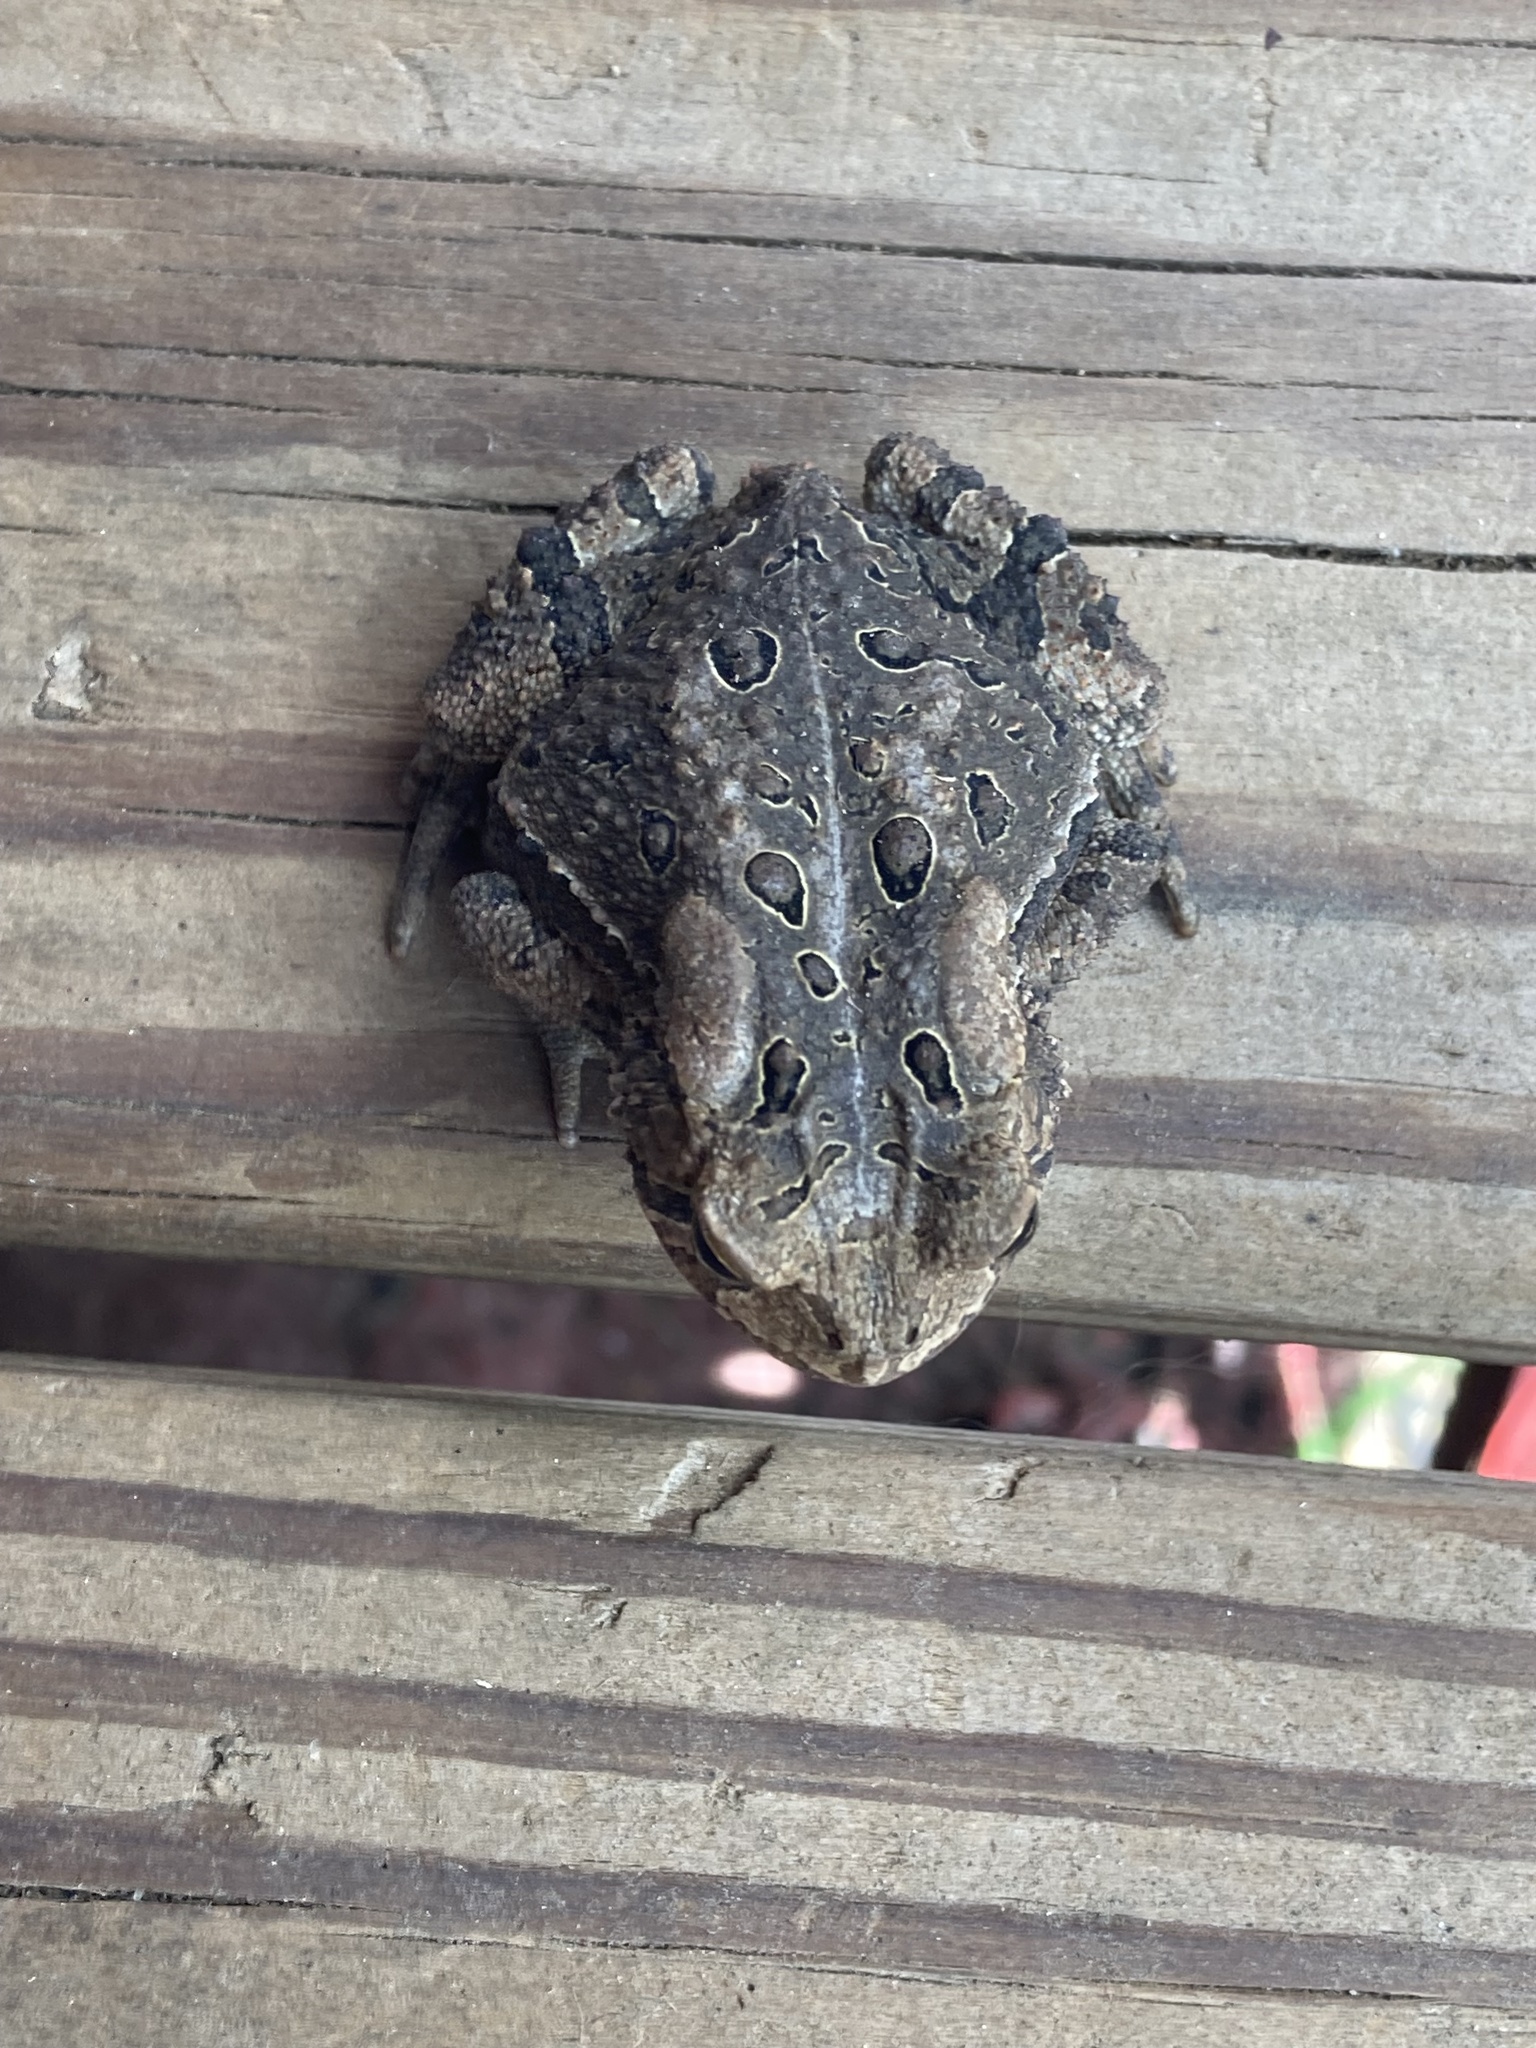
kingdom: Animalia
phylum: Chordata
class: Amphibia
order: Anura
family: Bufonidae
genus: Anaxyrus
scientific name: Anaxyrus americanus
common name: American toad
